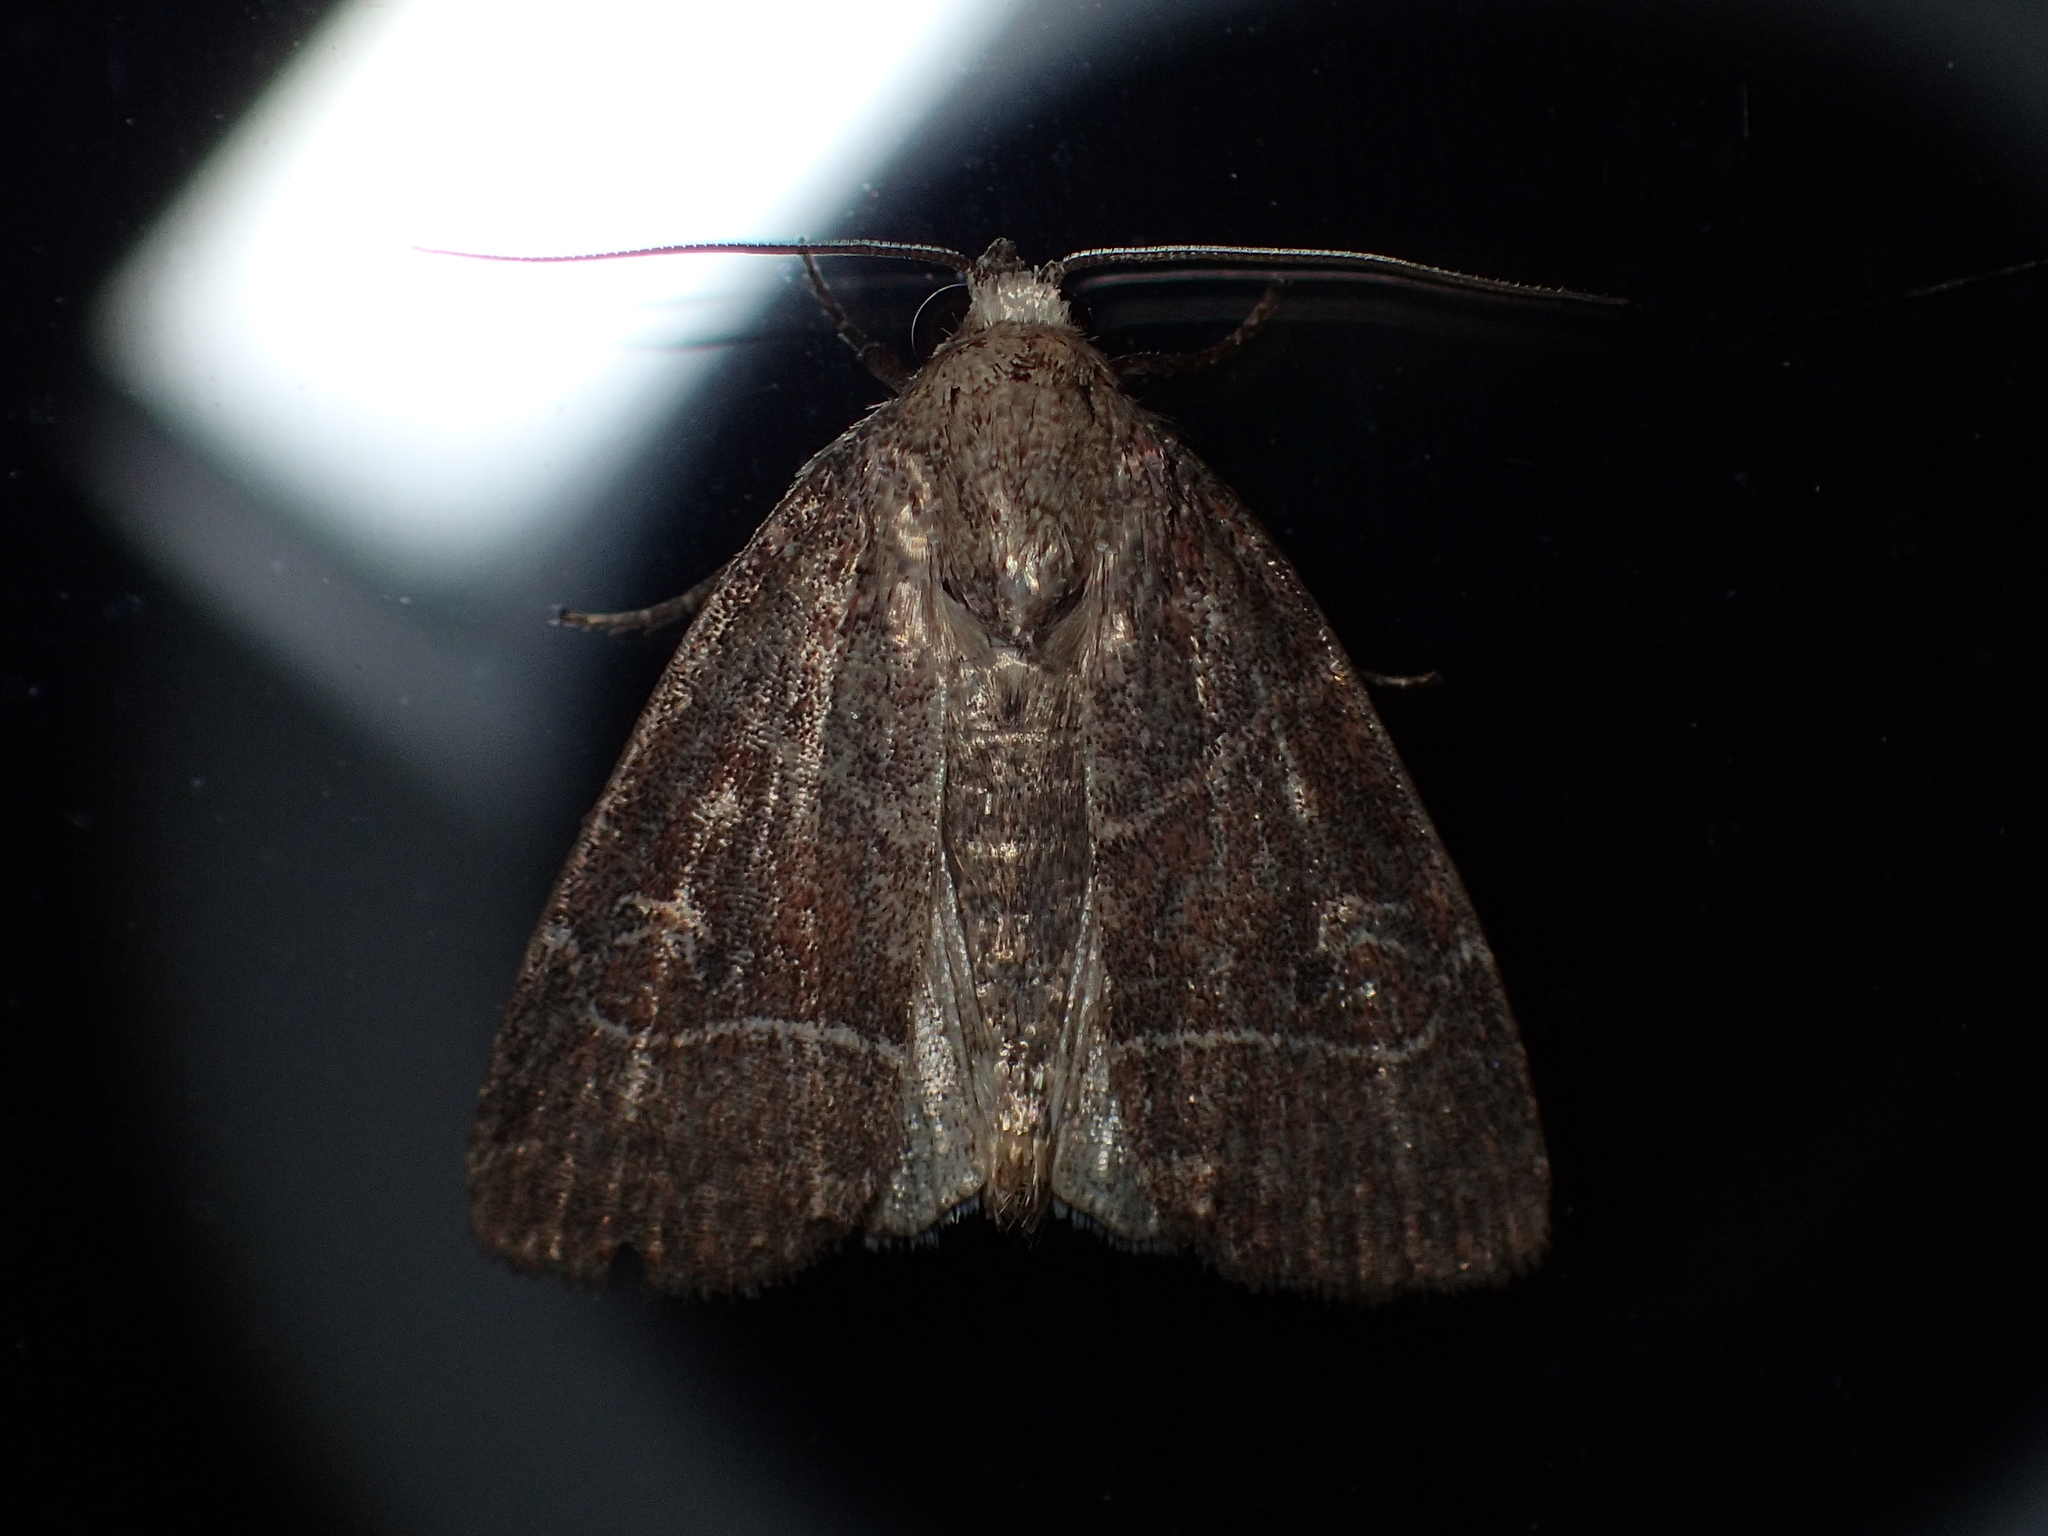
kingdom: Animalia
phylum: Arthropoda
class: Insecta
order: Lepidoptera
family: Noctuidae
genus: Elaphria
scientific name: Elaphria grata
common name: Grateful midget moth
